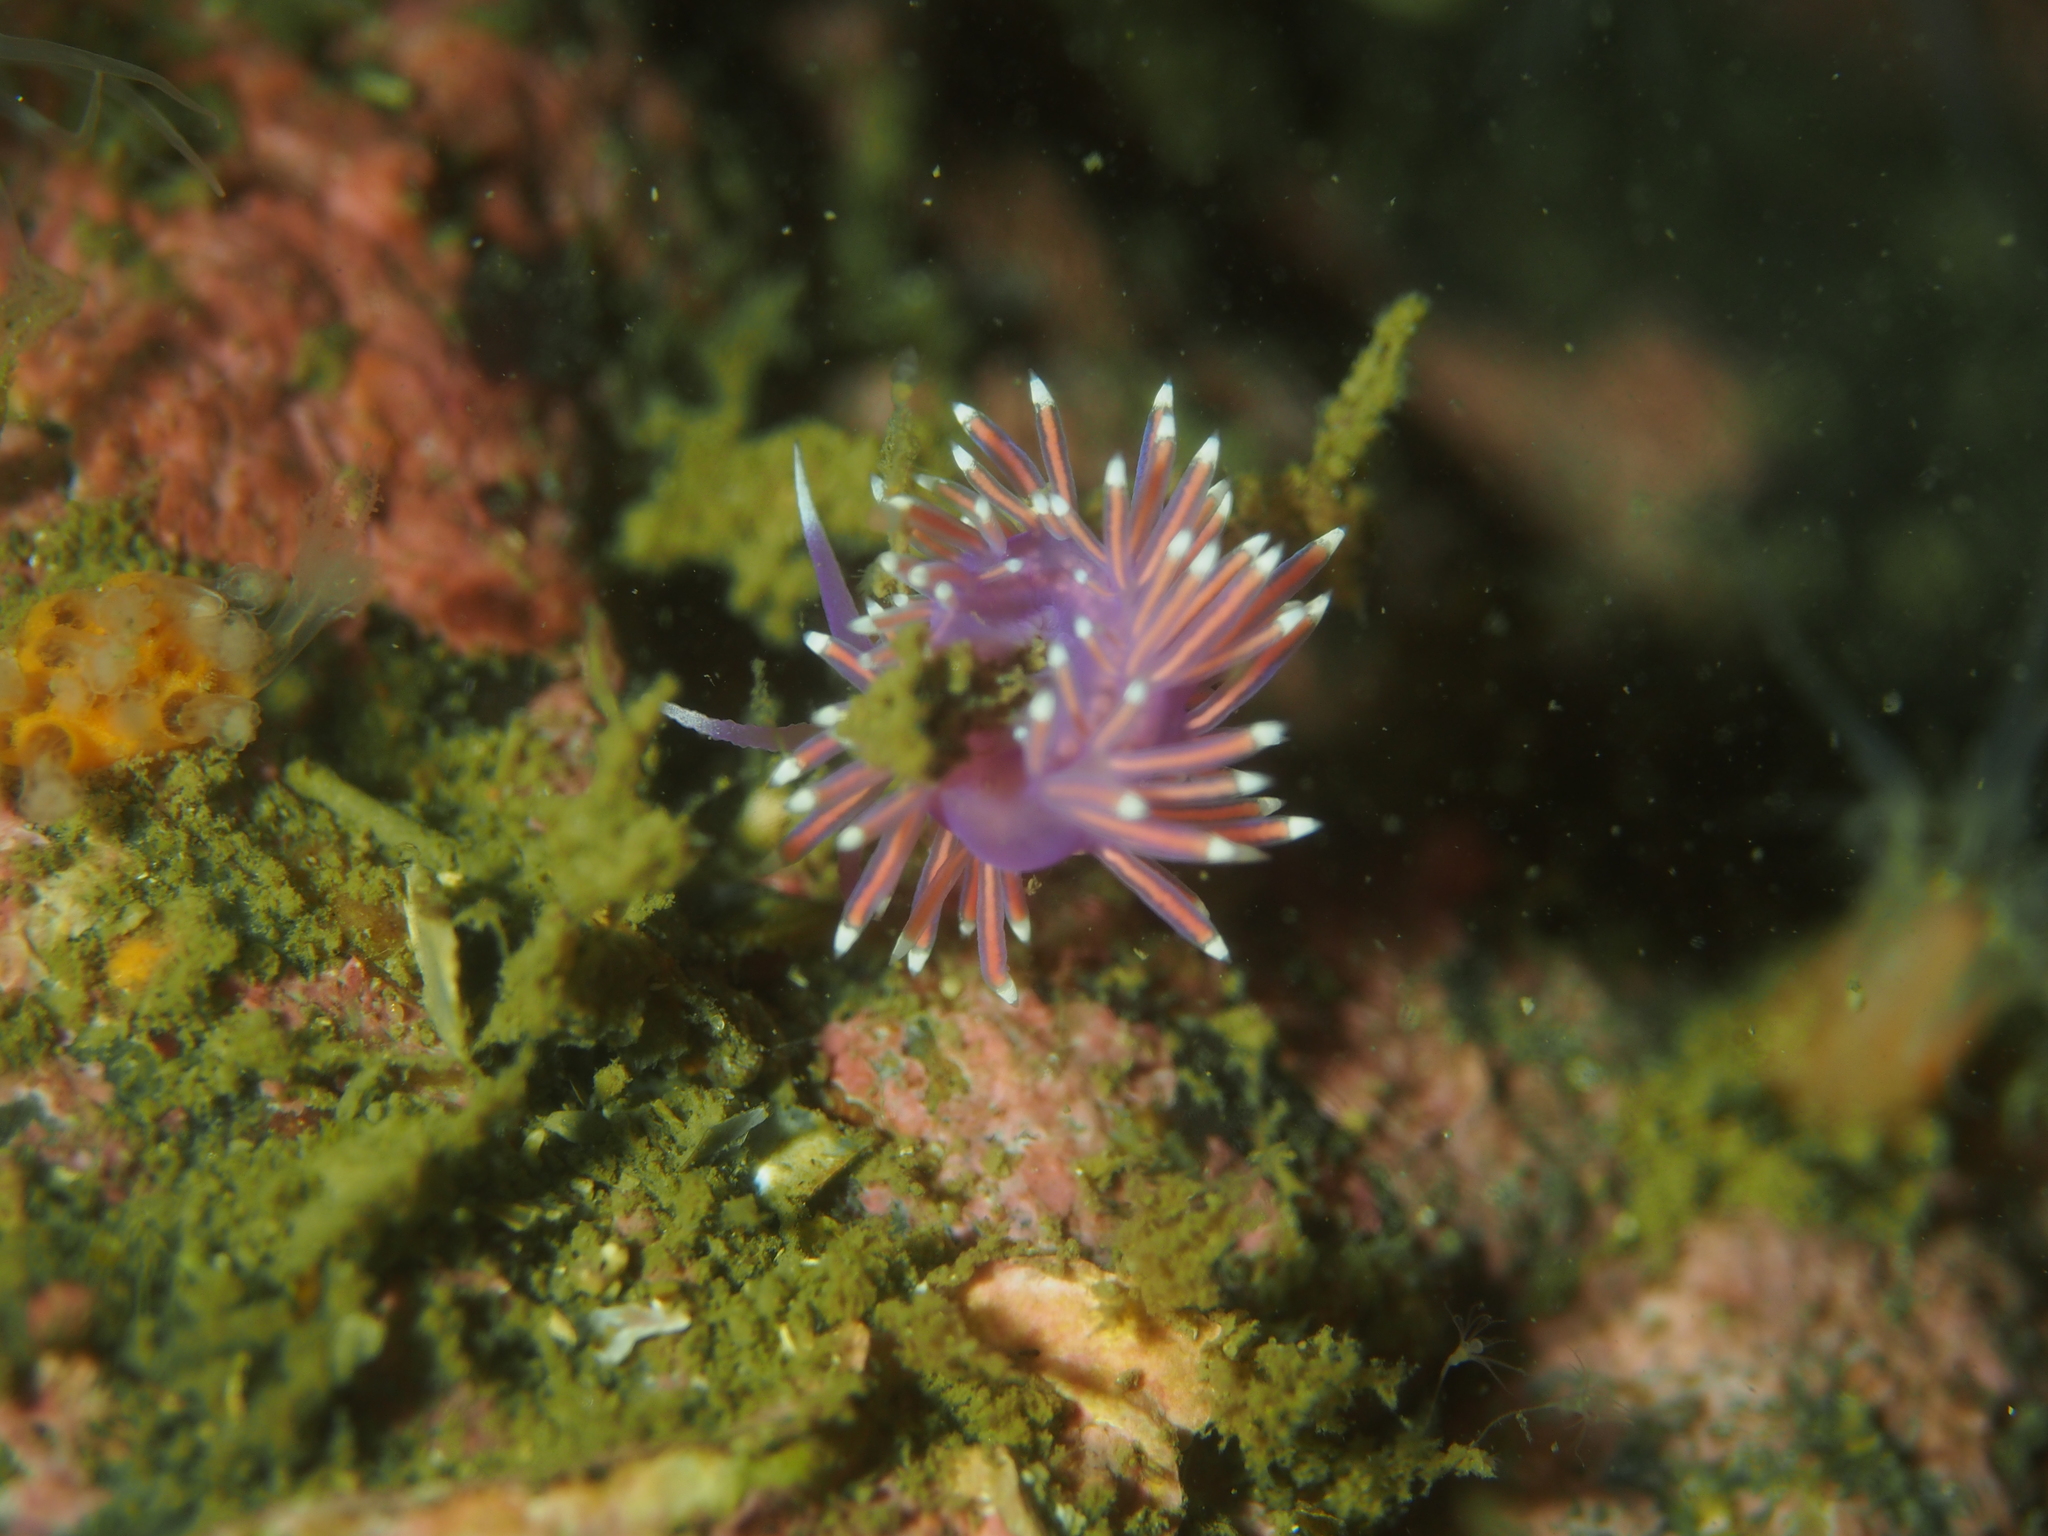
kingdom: Animalia
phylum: Mollusca
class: Gastropoda
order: Nudibranchia
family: Flabellinidae
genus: Edmundsella
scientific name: Edmundsella pedata
